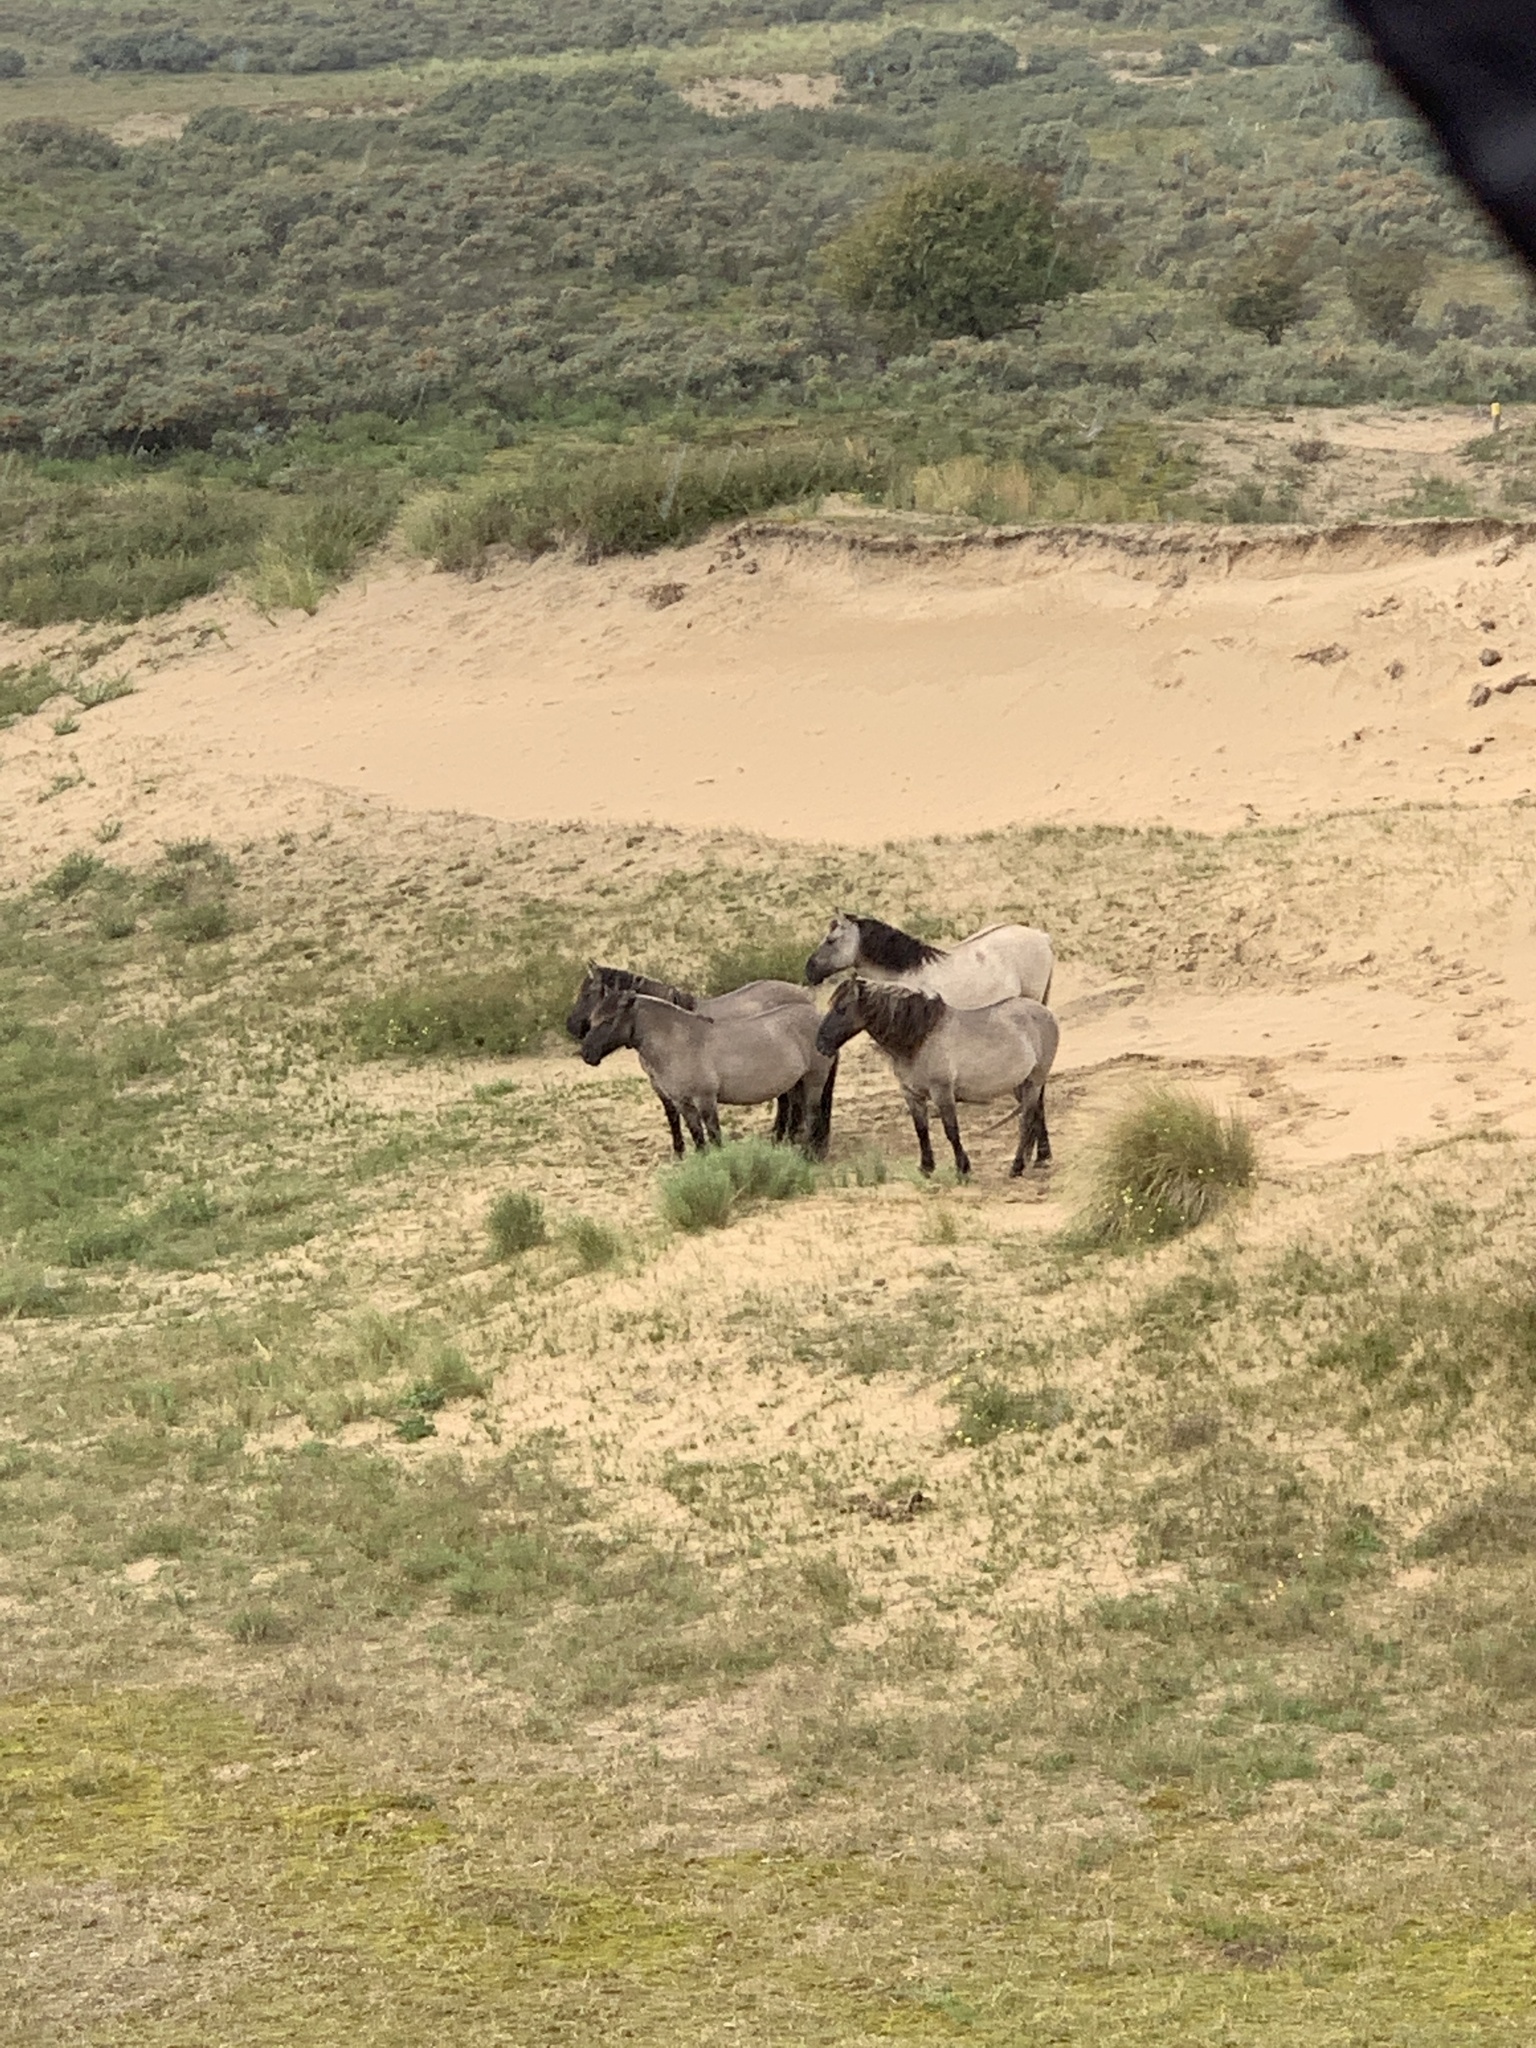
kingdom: Animalia
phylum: Chordata
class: Mammalia
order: Perissodactyla
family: Equidae
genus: Equus
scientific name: Equus caballus
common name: Horse
